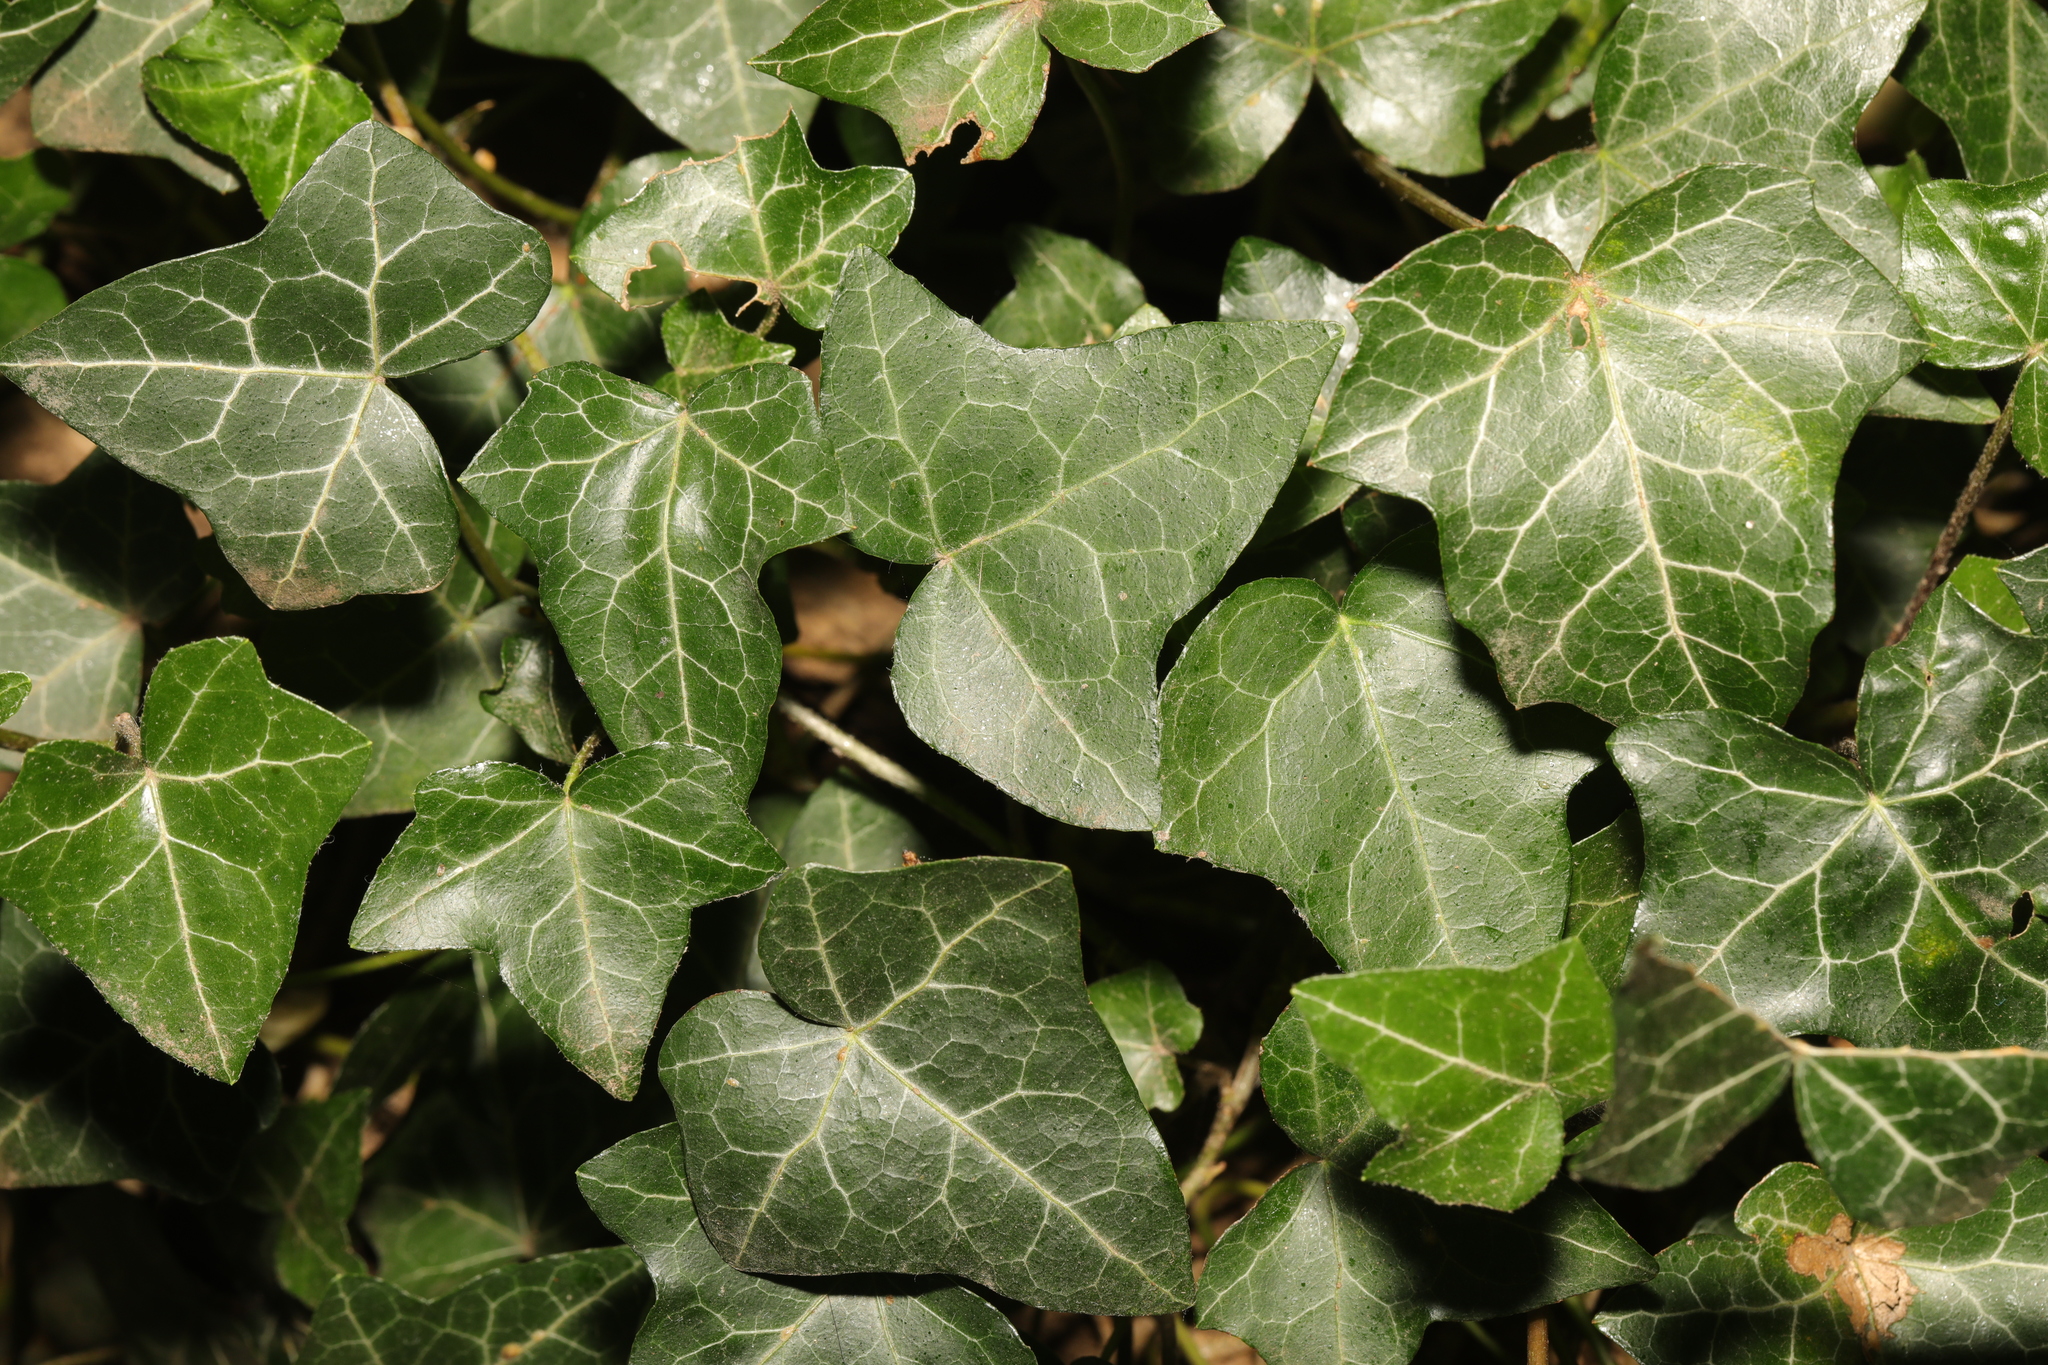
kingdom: Plantae
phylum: Tracheophyta
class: Magnoliopsida
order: Apiales
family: Araliaceae
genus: Hedera
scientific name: Hedera helix
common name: Ivy
